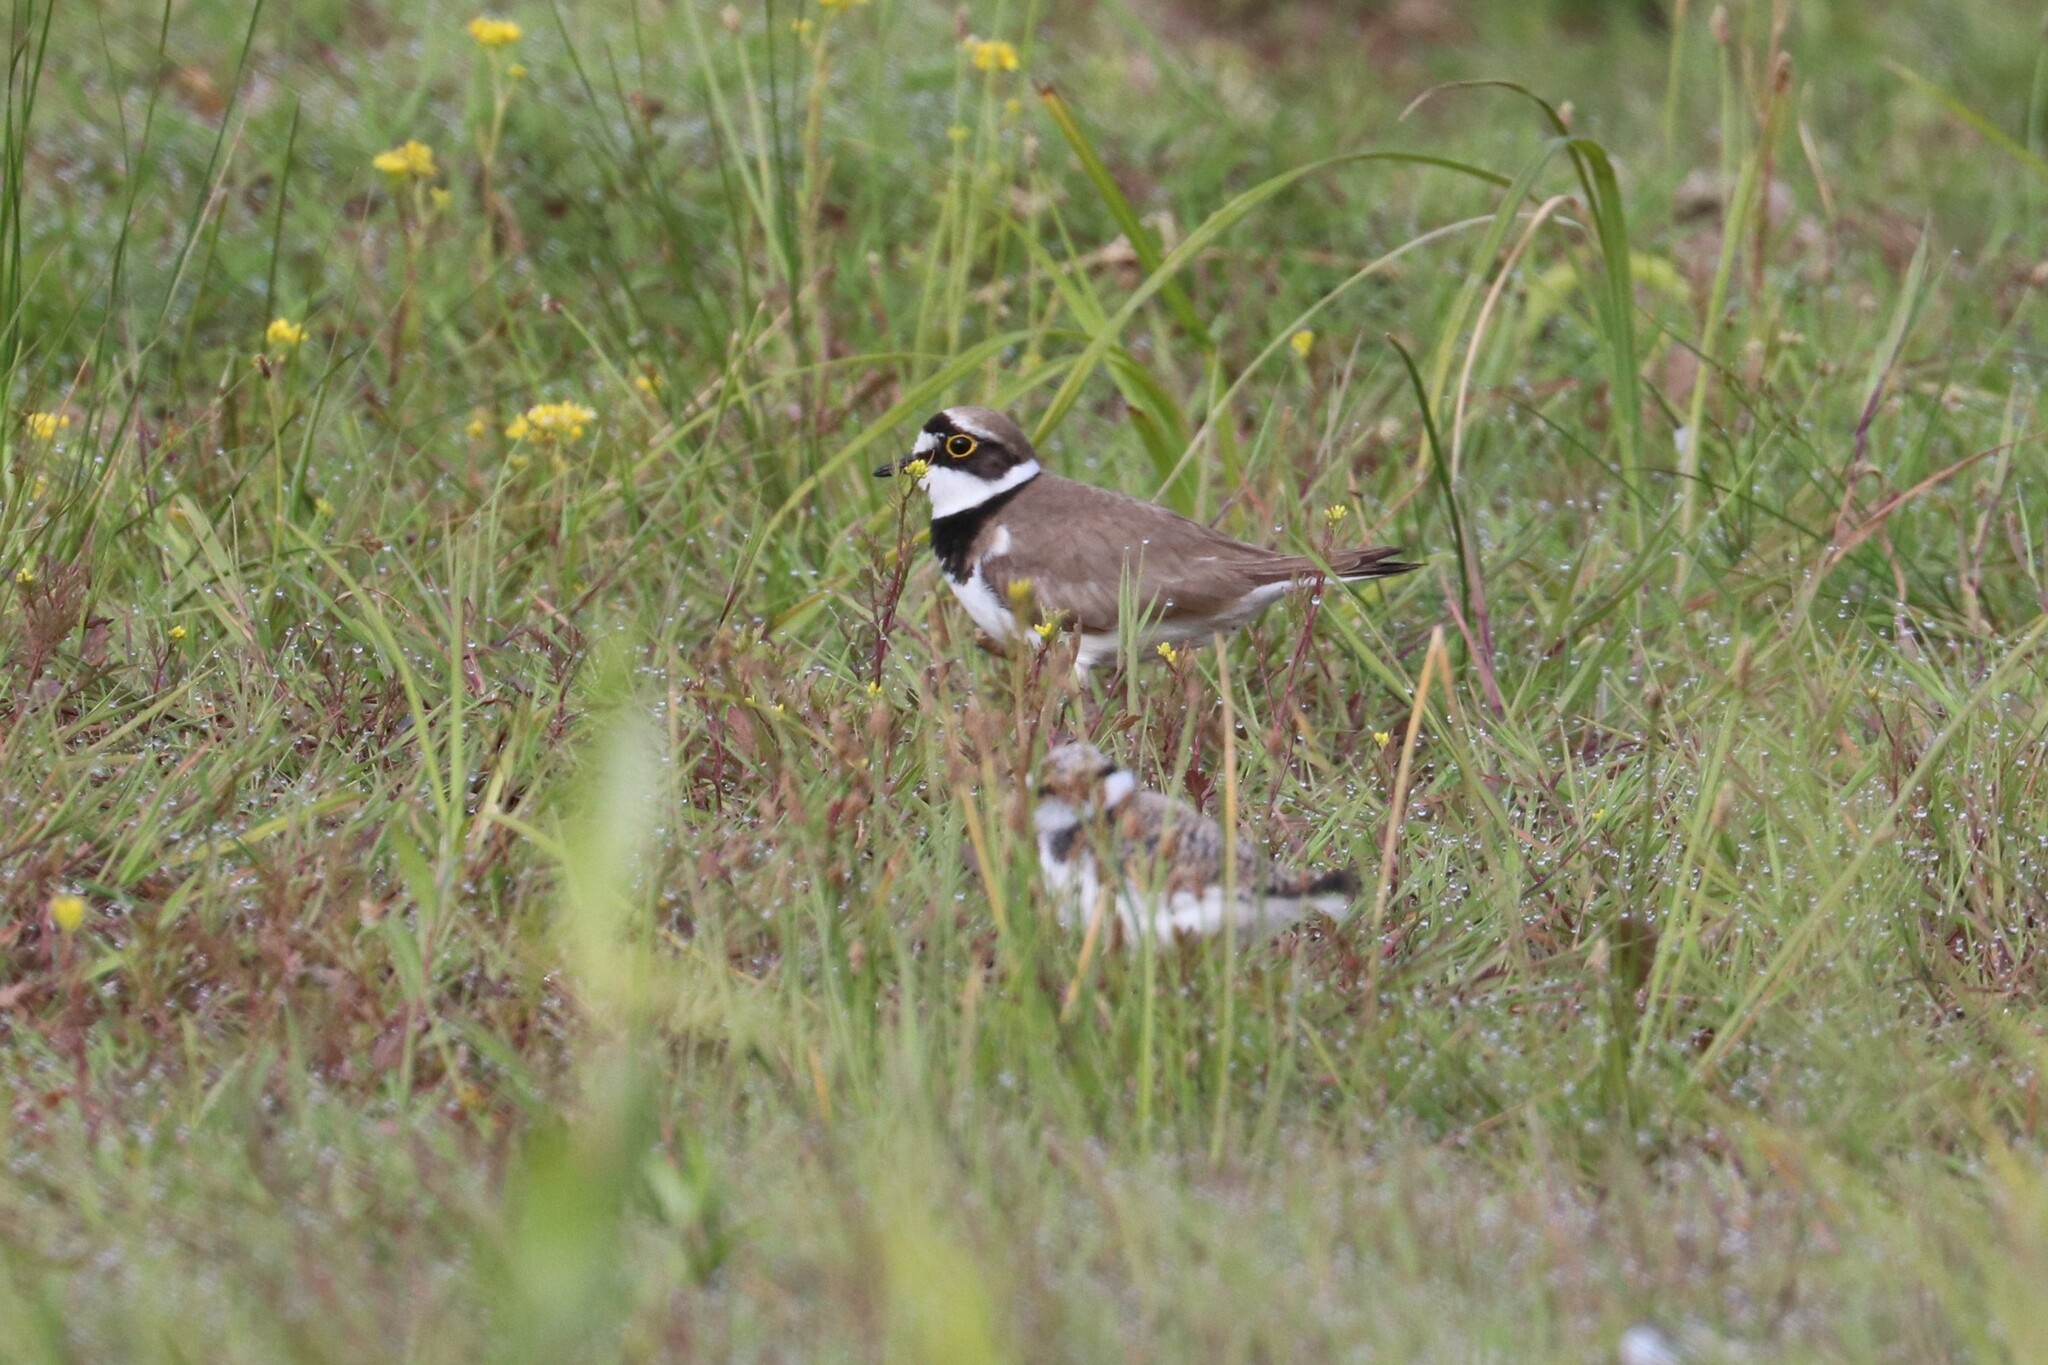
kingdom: Animalia
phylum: Chordata
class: Aves
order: Charadriiformes
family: Charadriidae
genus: Charadrius
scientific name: Charadrius dubius
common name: Little ringed plover
